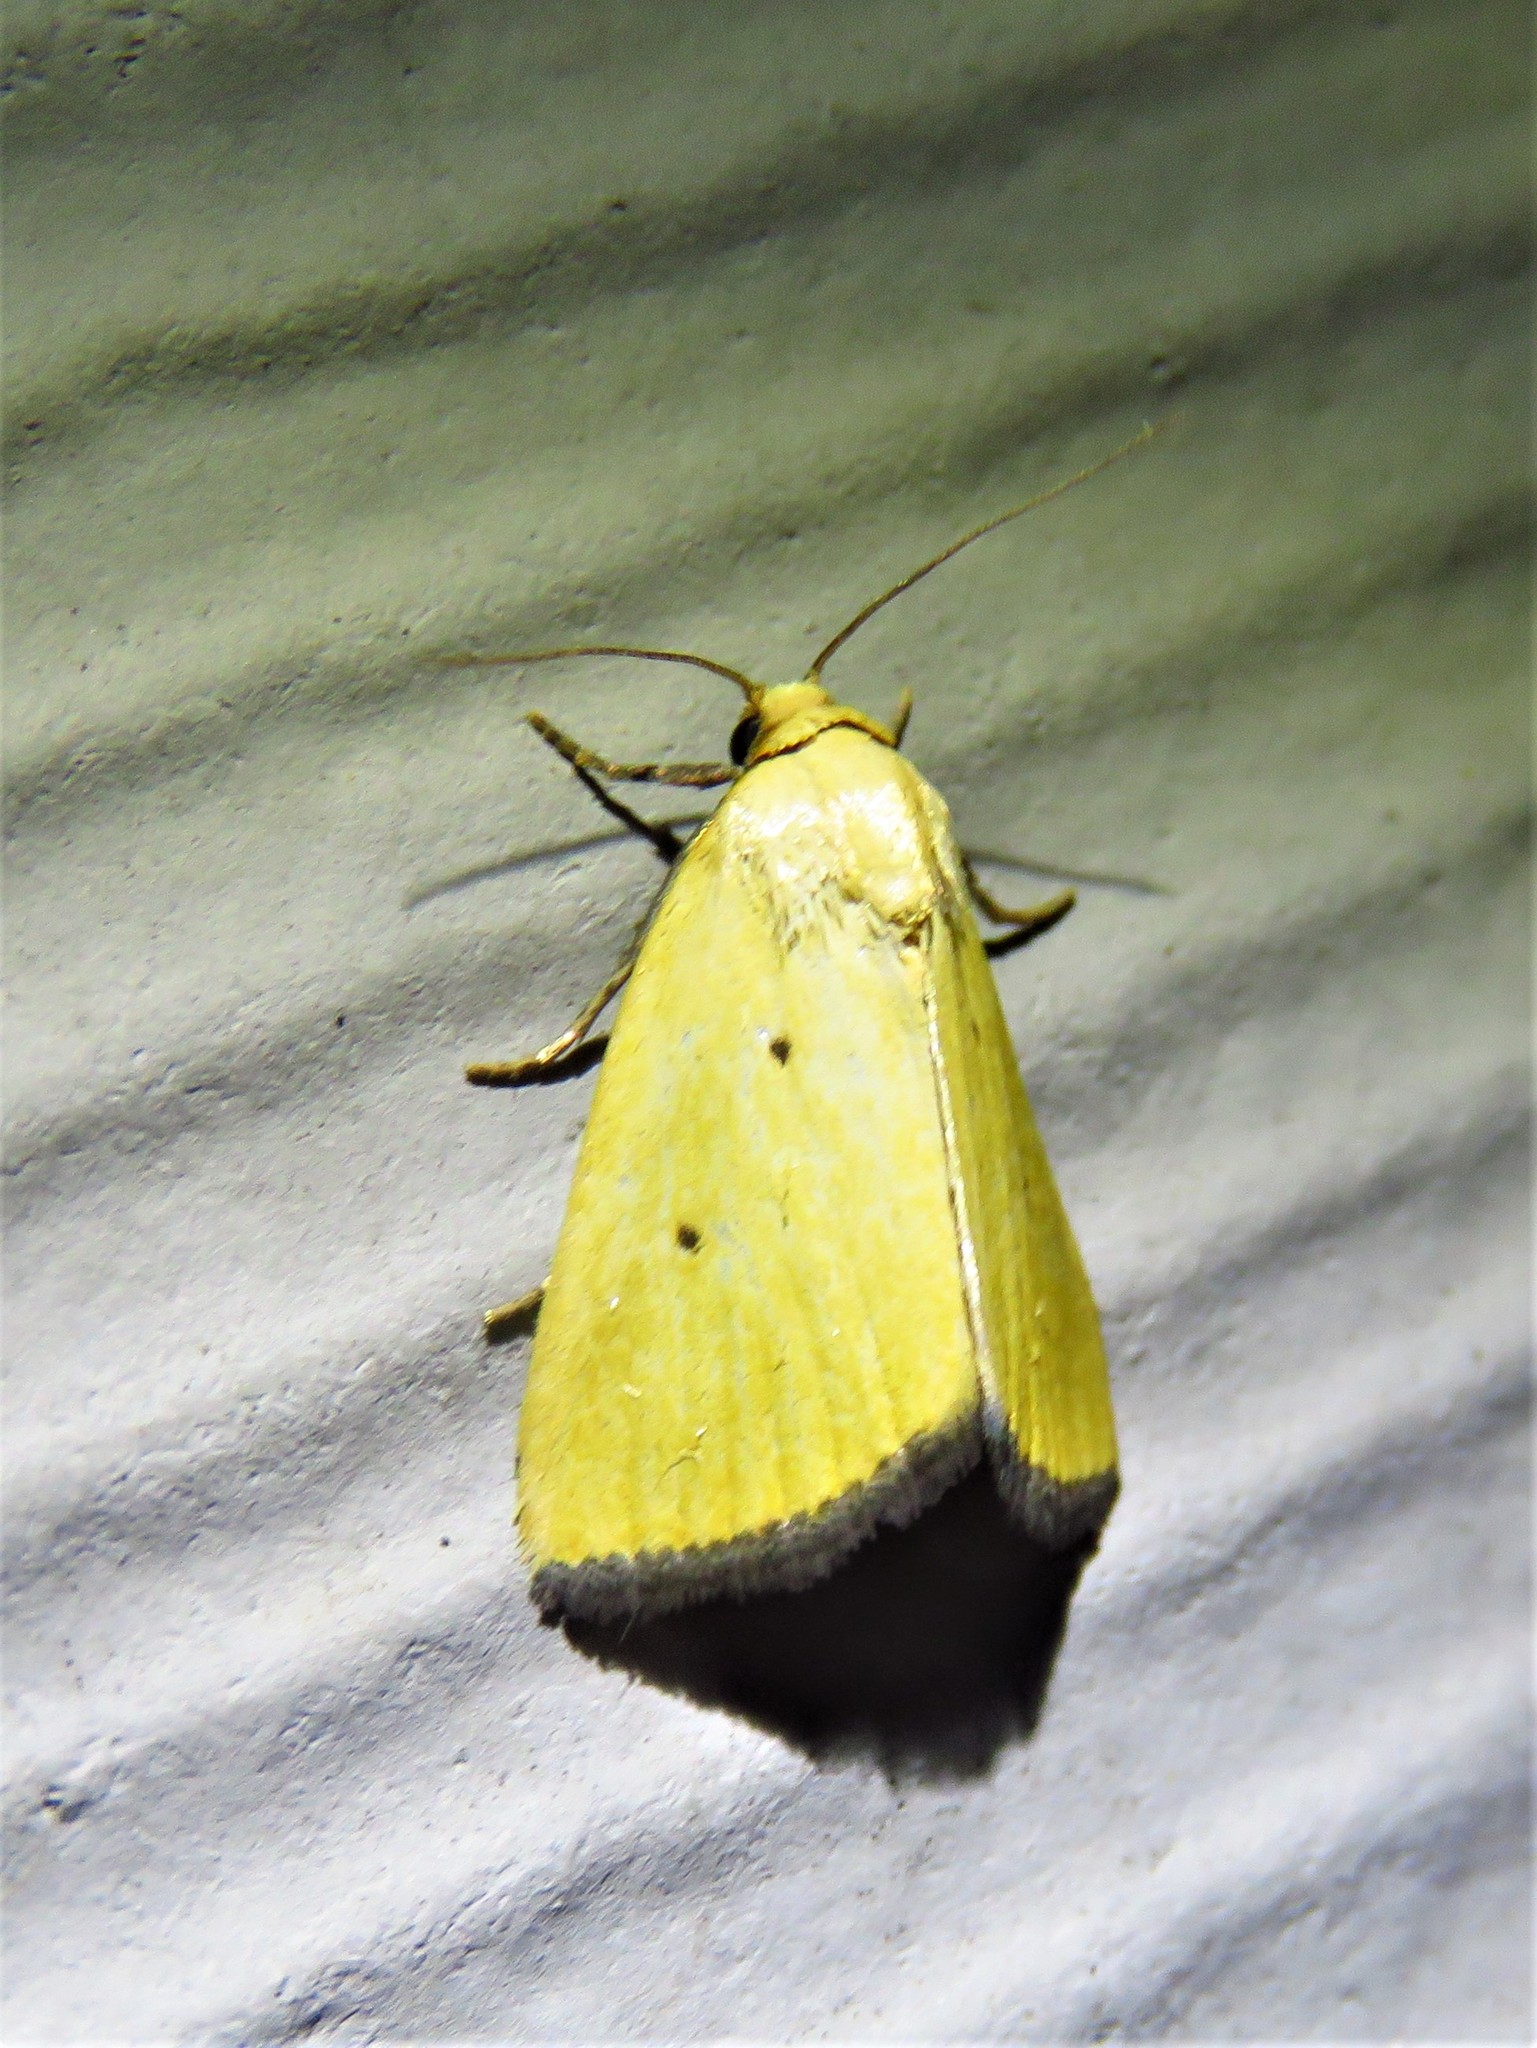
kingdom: Animalia
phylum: Arthropoda
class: Insecta
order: Lepidoptera
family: Noctuidae
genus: Marimatha
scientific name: Marimatha nigrofimbria
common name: Black-bordered lemon moth
